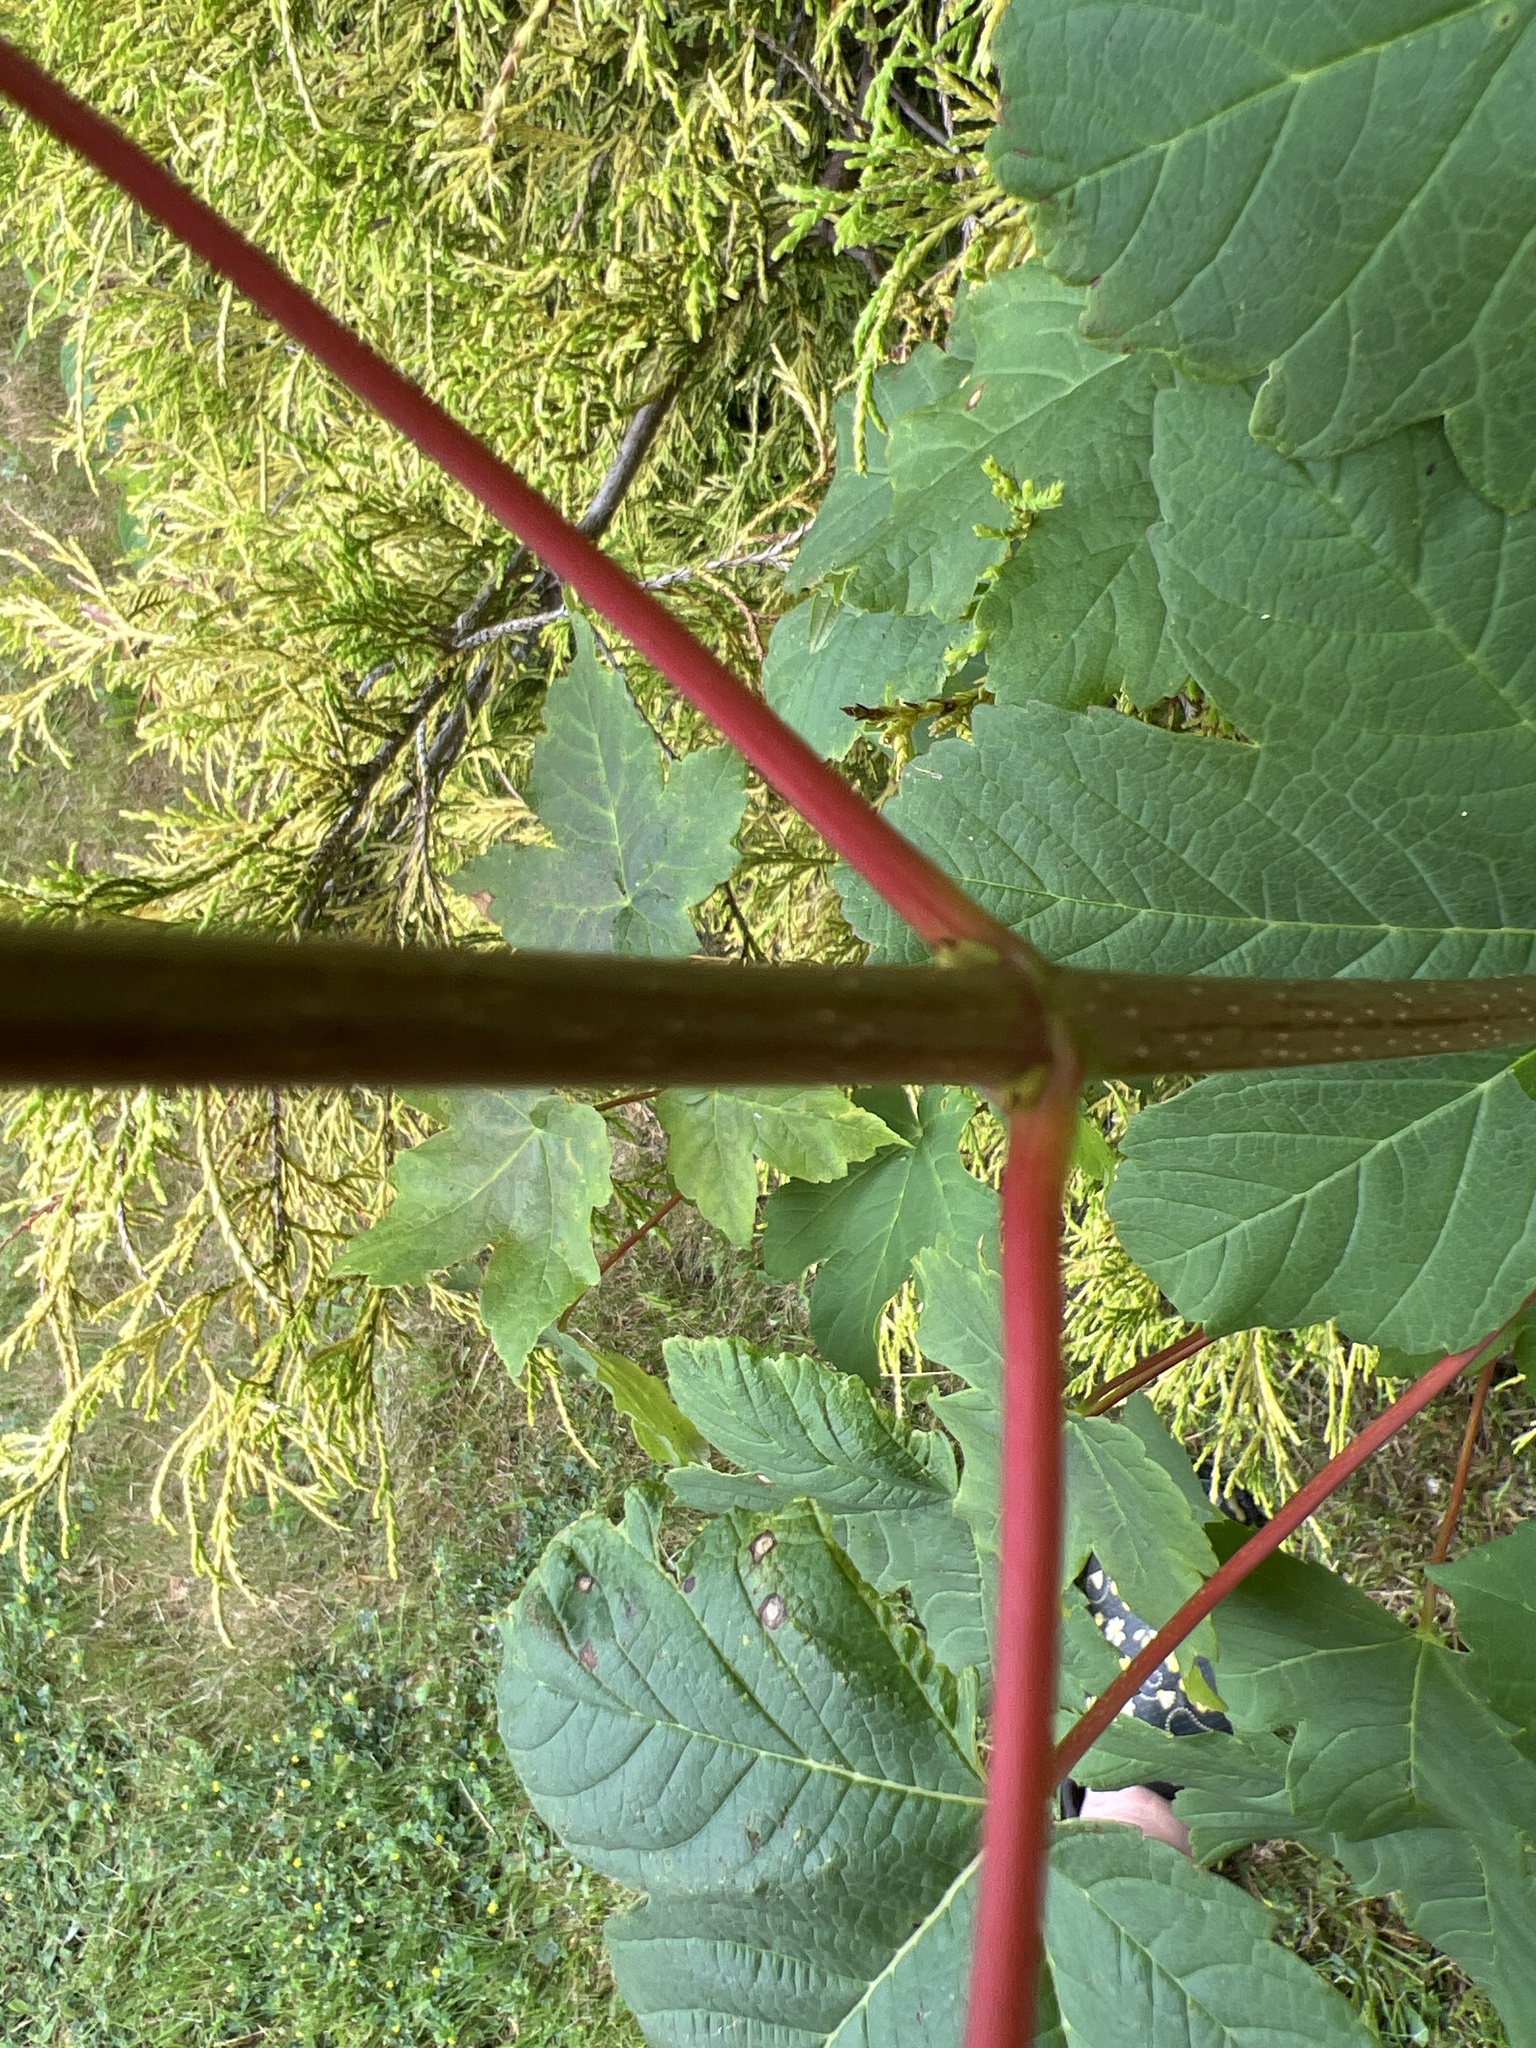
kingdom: Plantae
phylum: Tracheophyta
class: Magnoliopsida
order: Sapindales
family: Sapindaceae
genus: Acer
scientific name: Acer pseudoplatanus
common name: Sycamore
